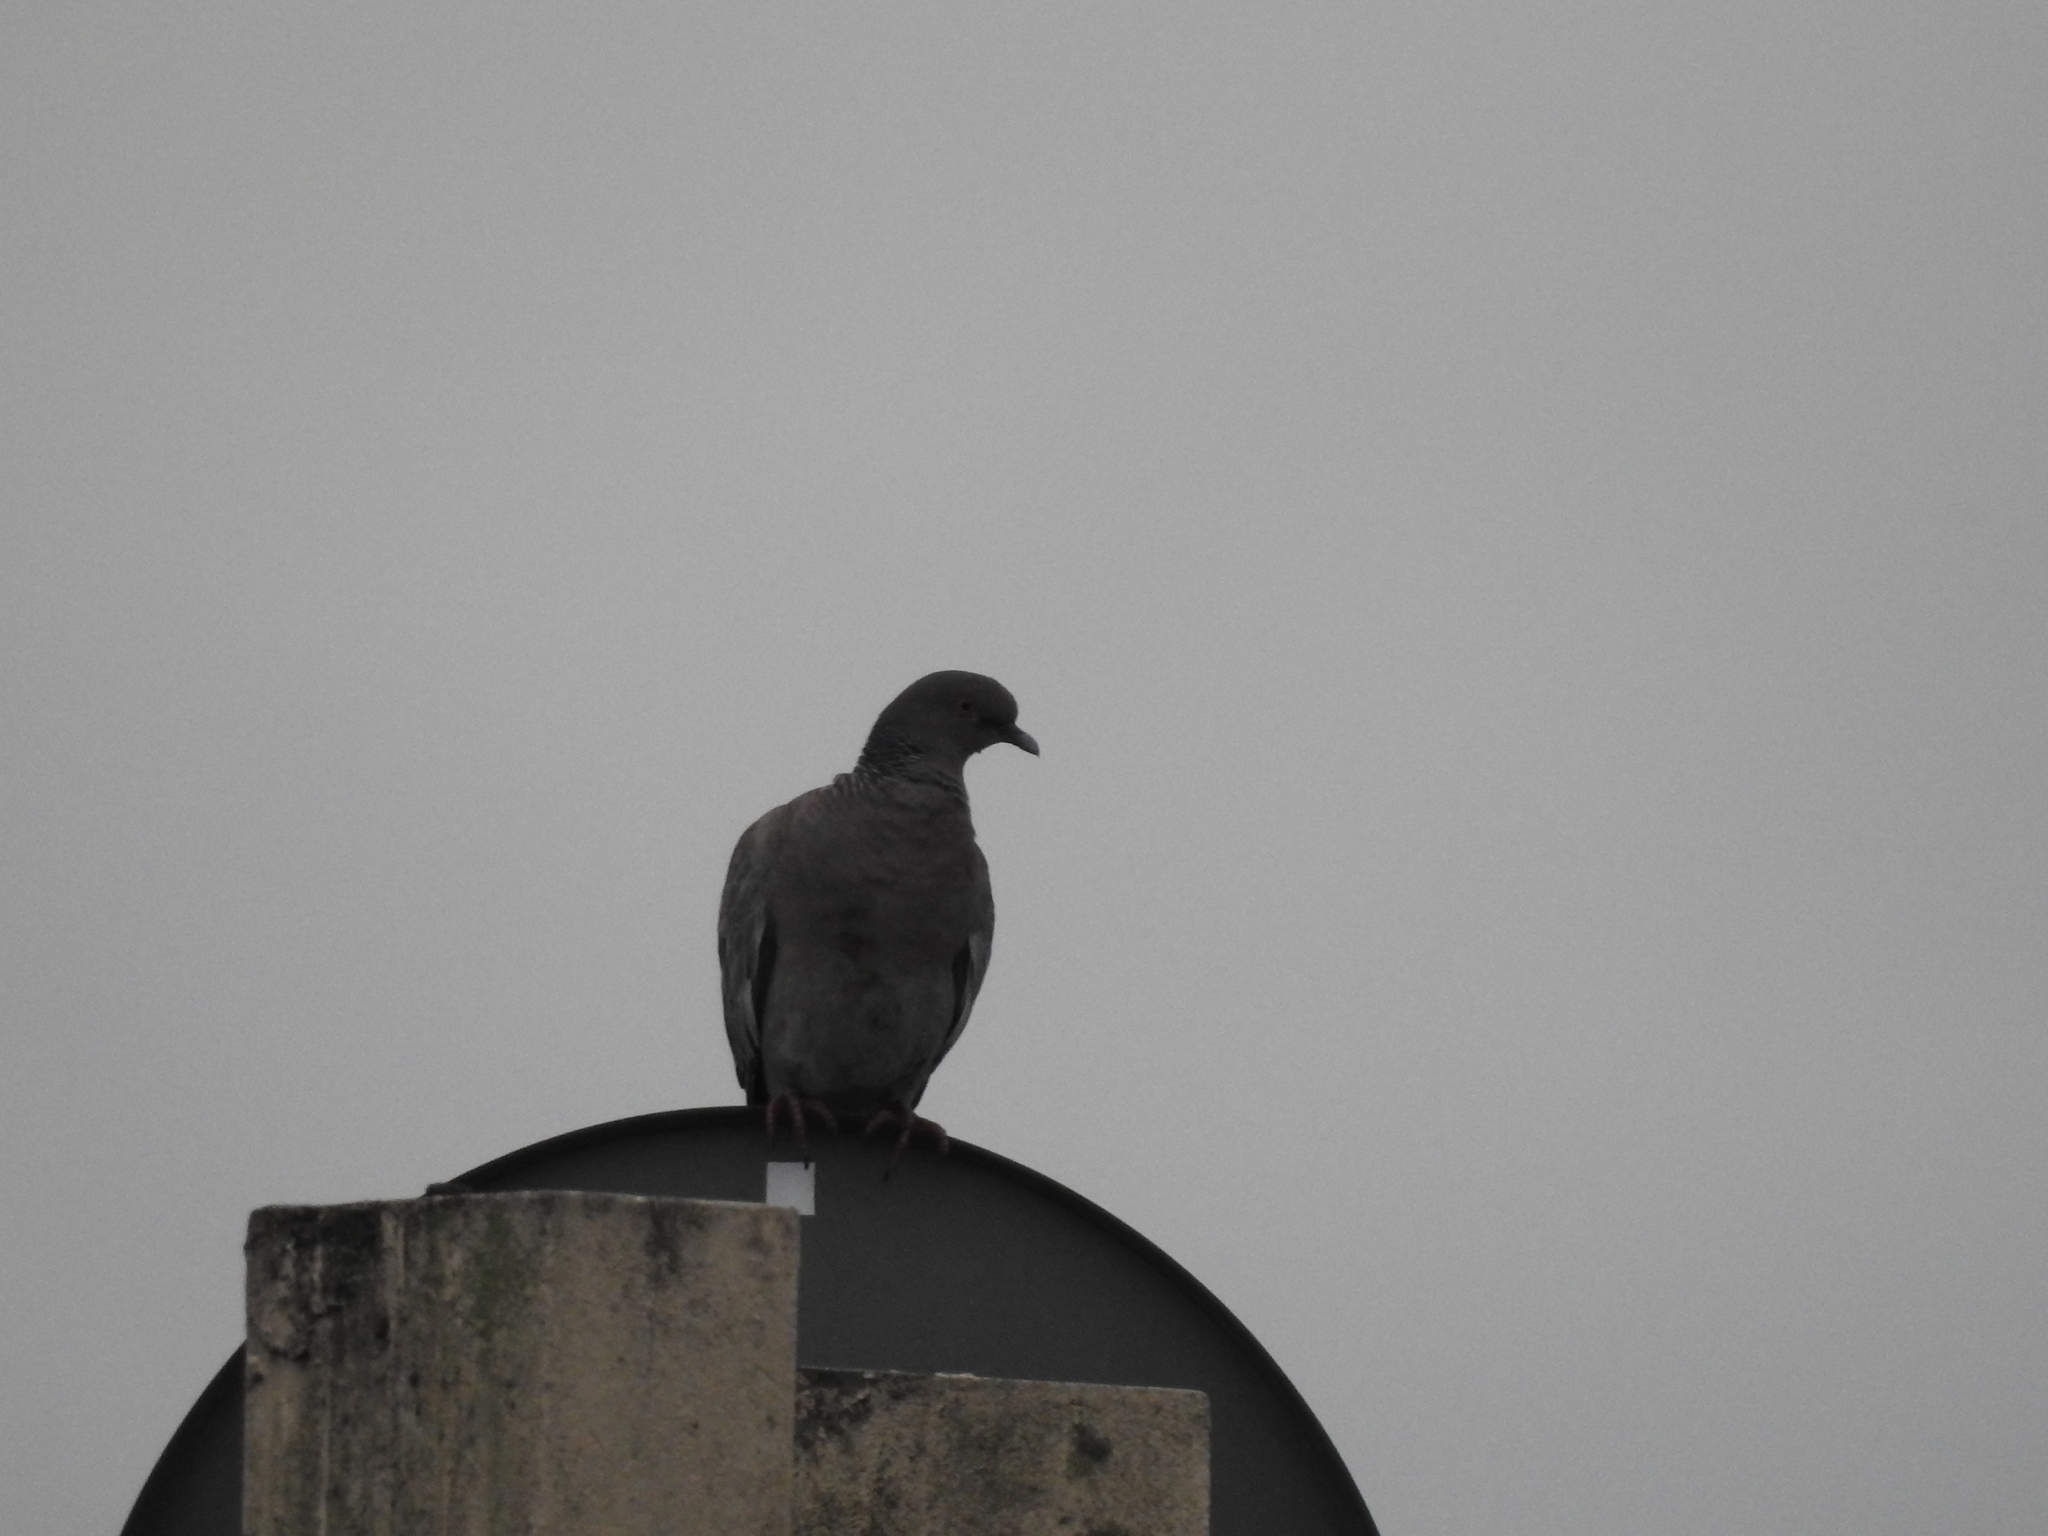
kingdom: Animalia
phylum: Chordata
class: Aves
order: Columbiformes
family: Columbidae
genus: Patagioenas
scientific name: Patagioenas picazuro
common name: Picazuro pigeon
